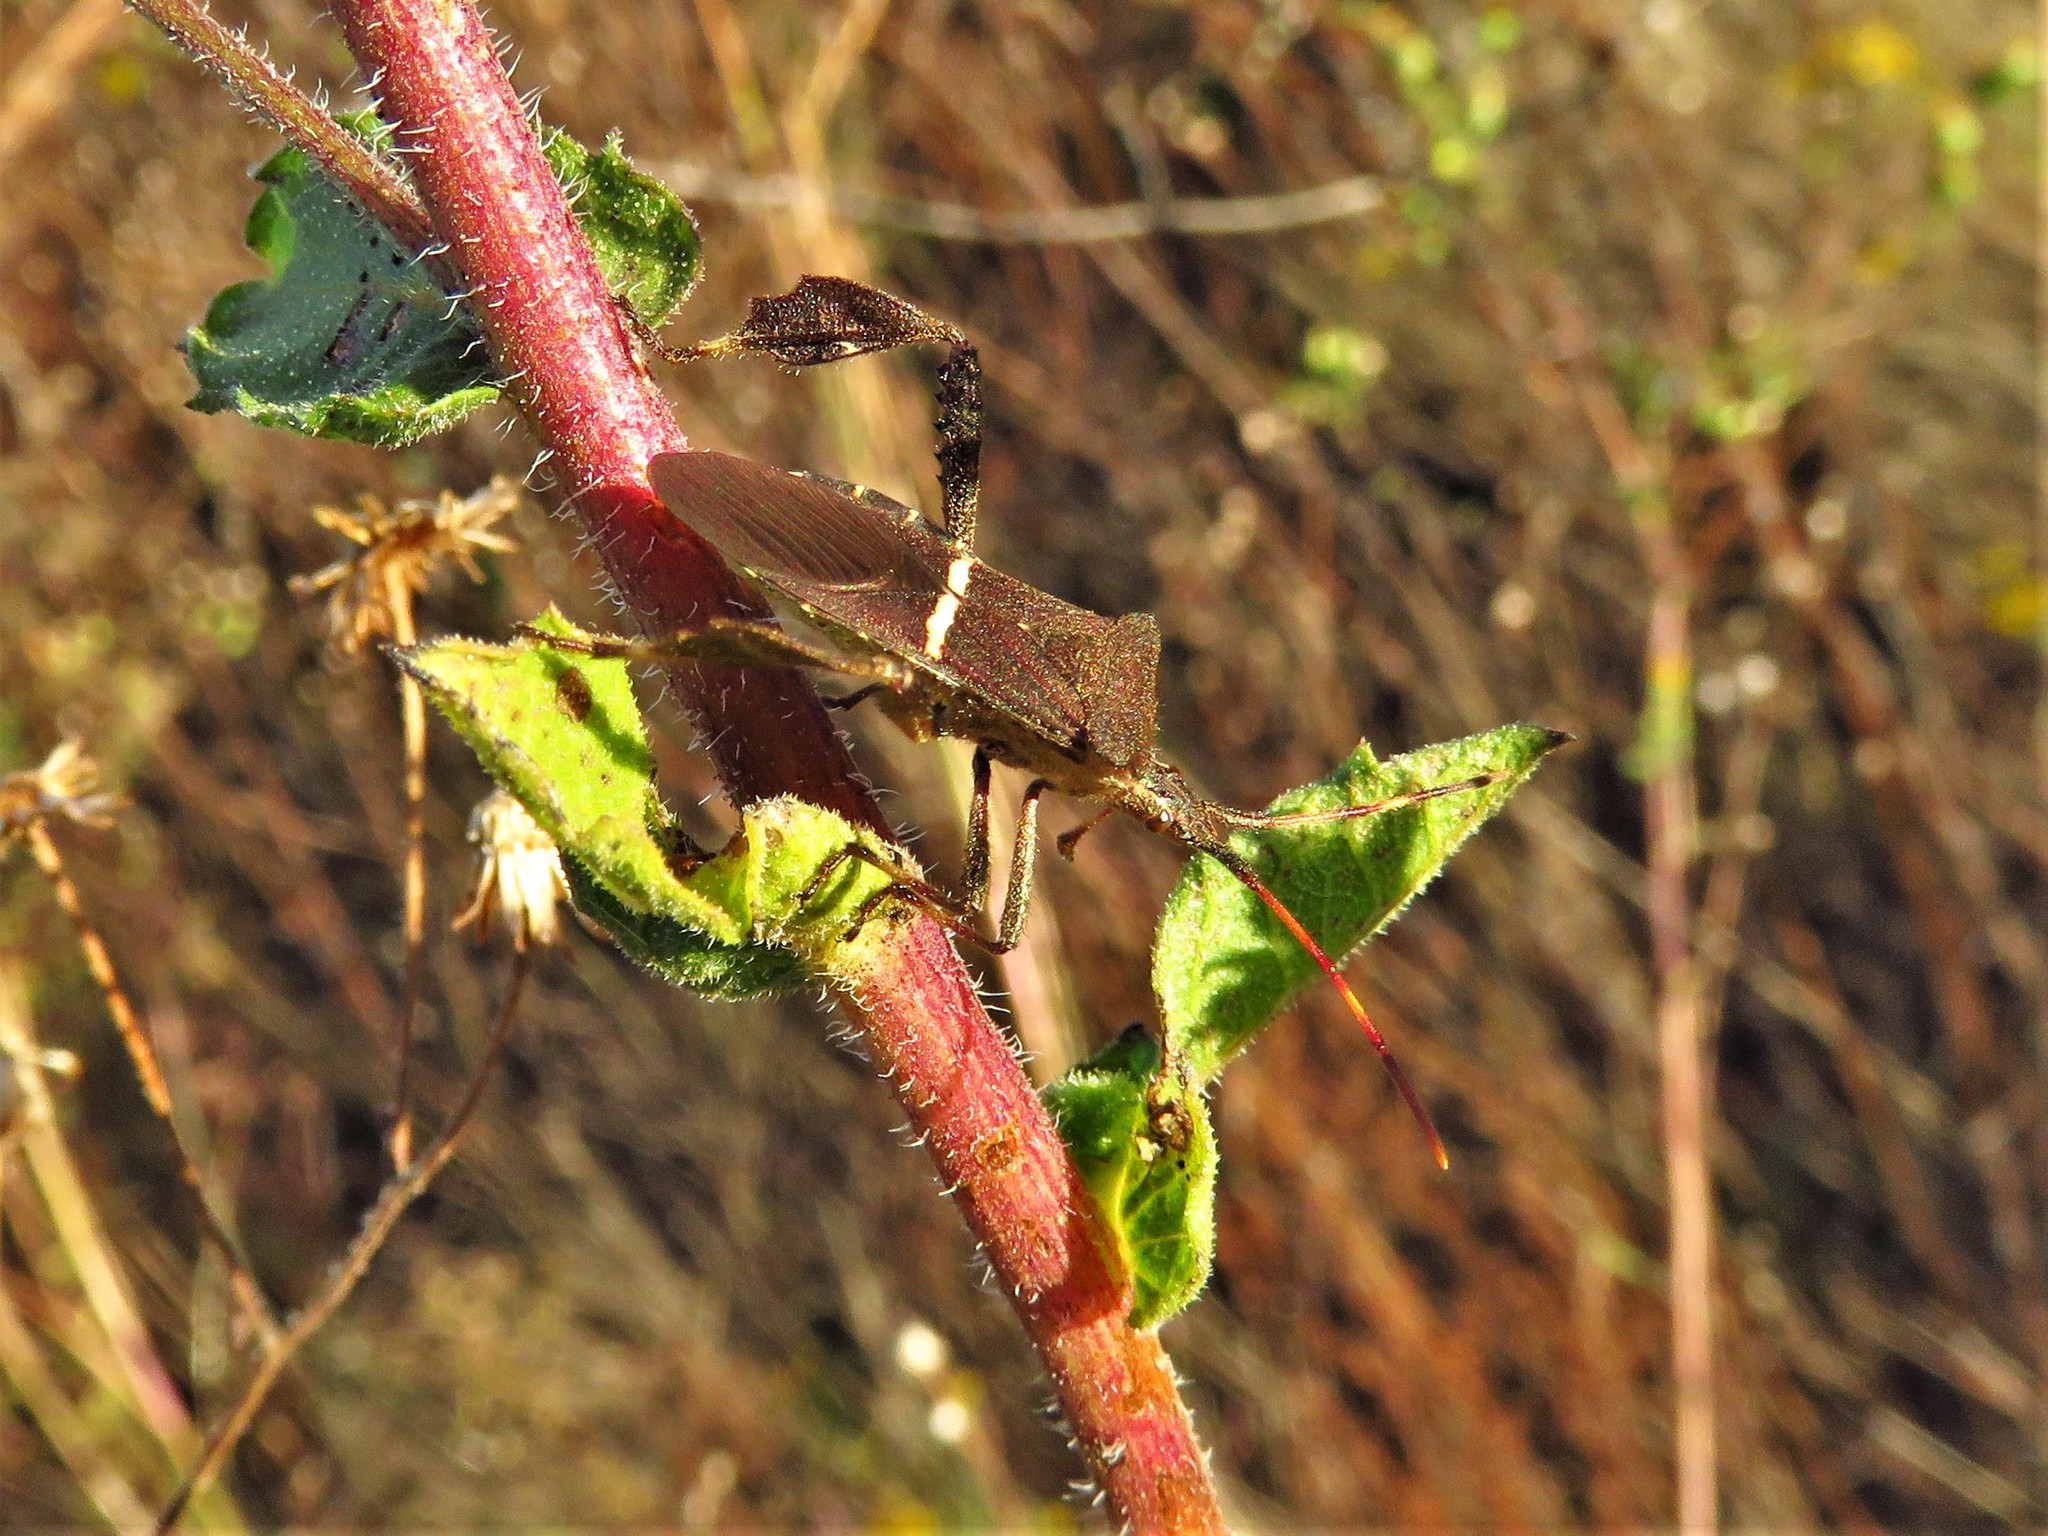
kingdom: Animalia
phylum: Arthropoda
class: Insecta
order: Hemiptera
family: Coreidae
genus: Leptoglossus
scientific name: Leptoglossus phyllopus
